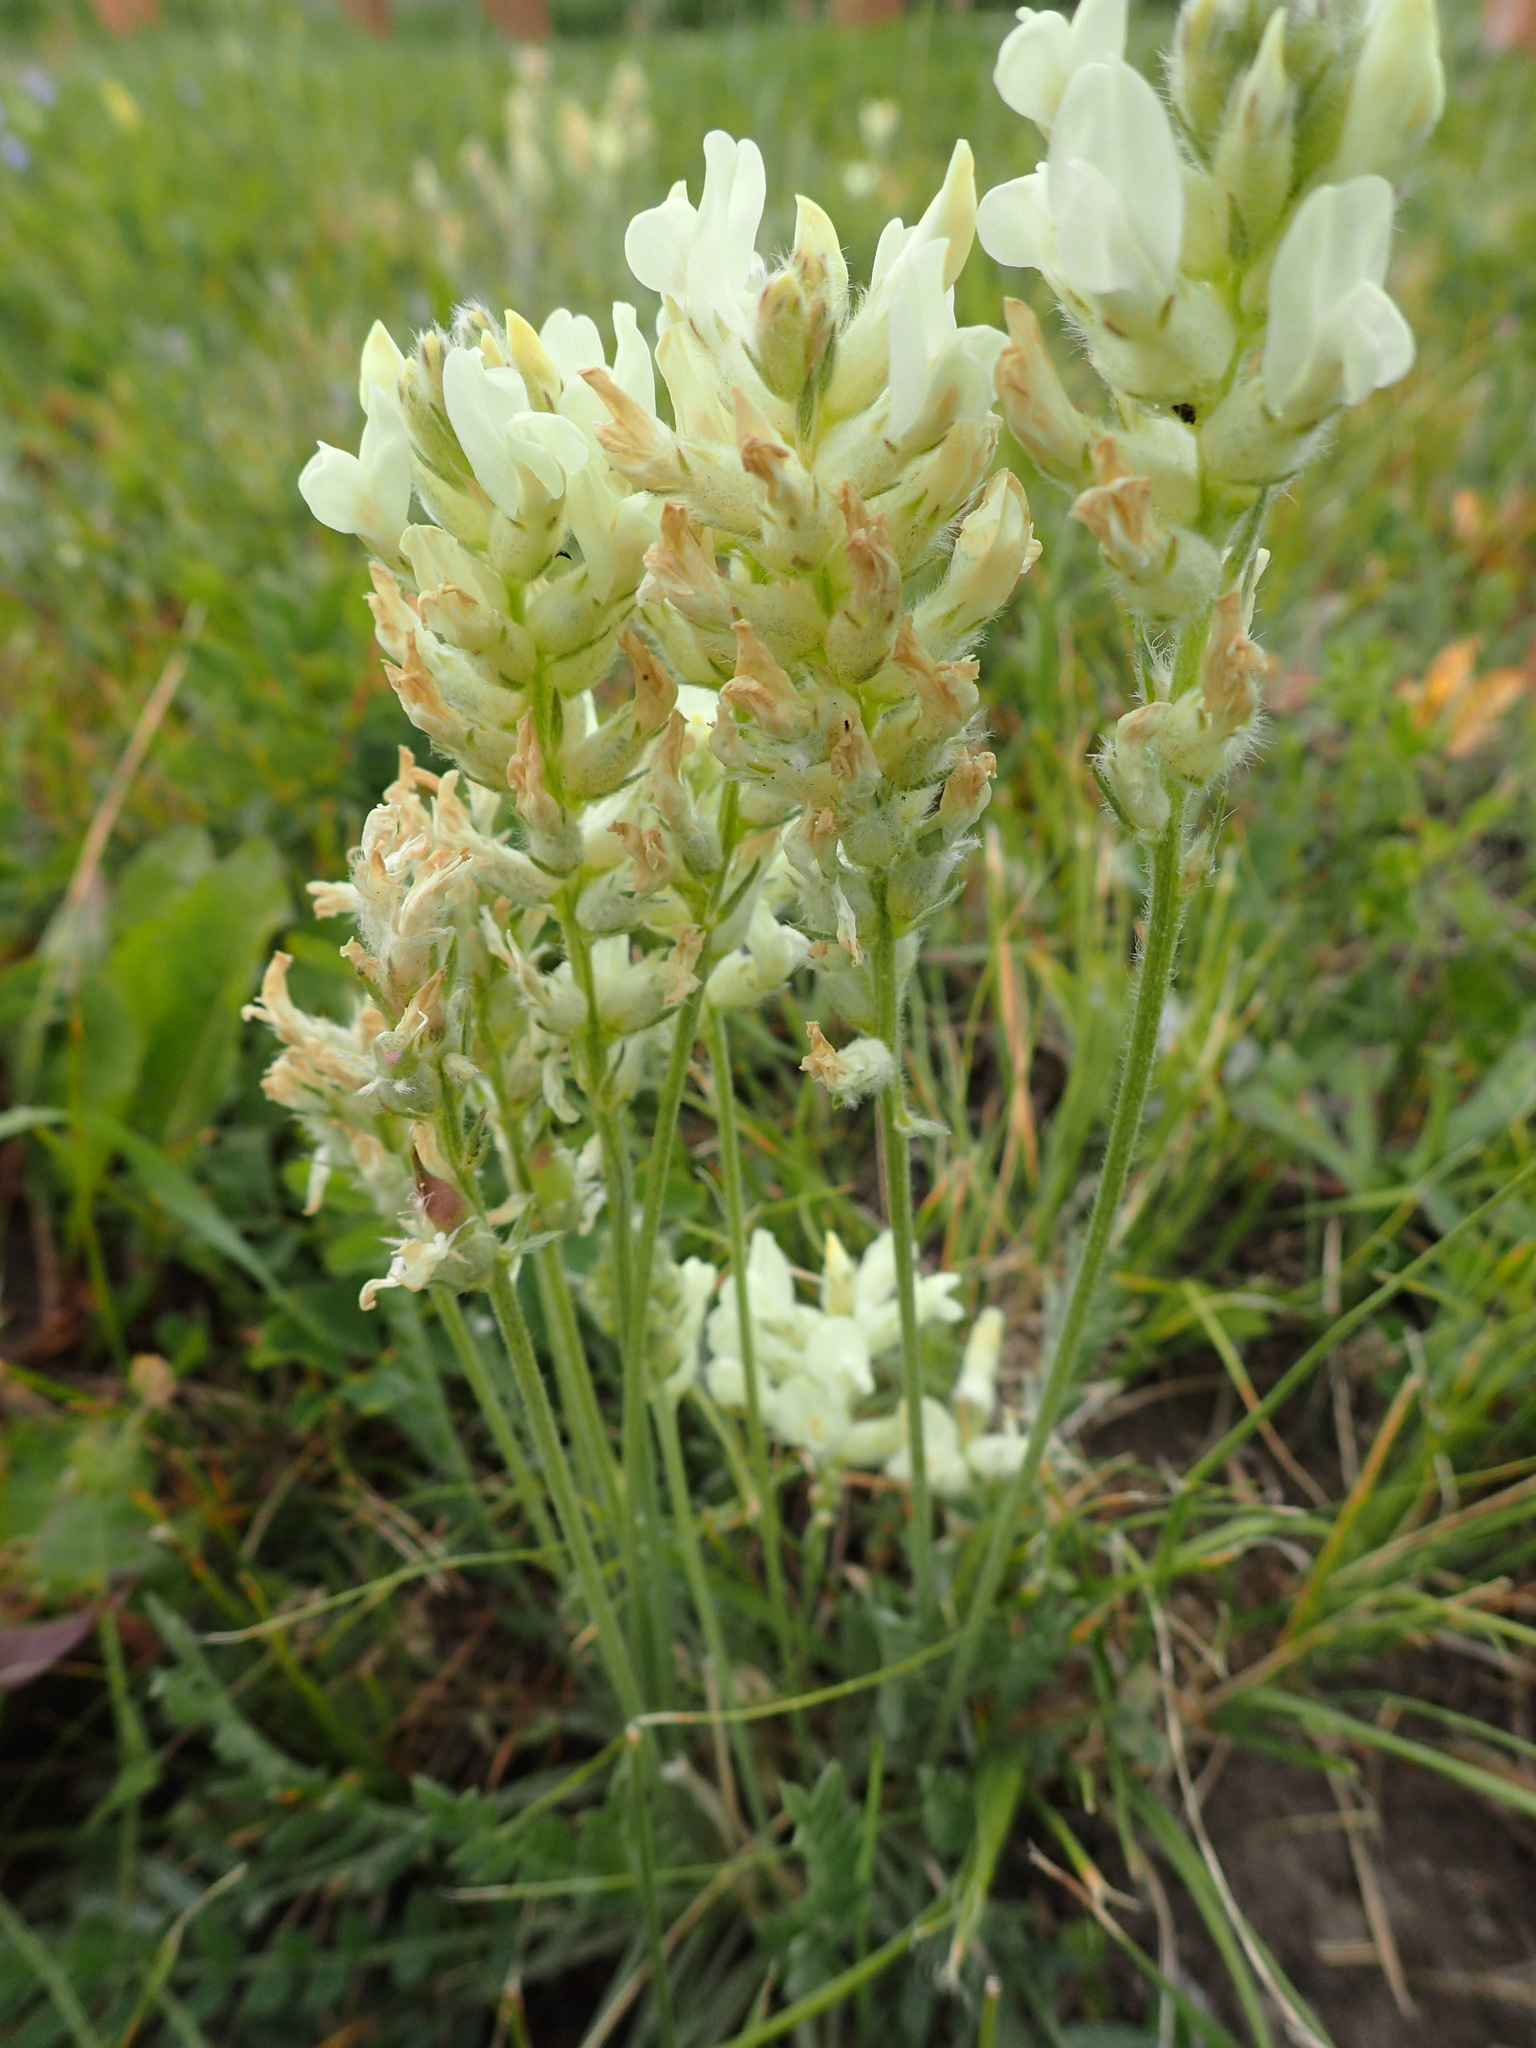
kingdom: Plantae
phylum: Tracheophyta
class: Magnoliopsida
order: Fabales
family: Fabaceae
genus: Oxytropis
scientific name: Oxytropis campestris
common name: Field locoweed
